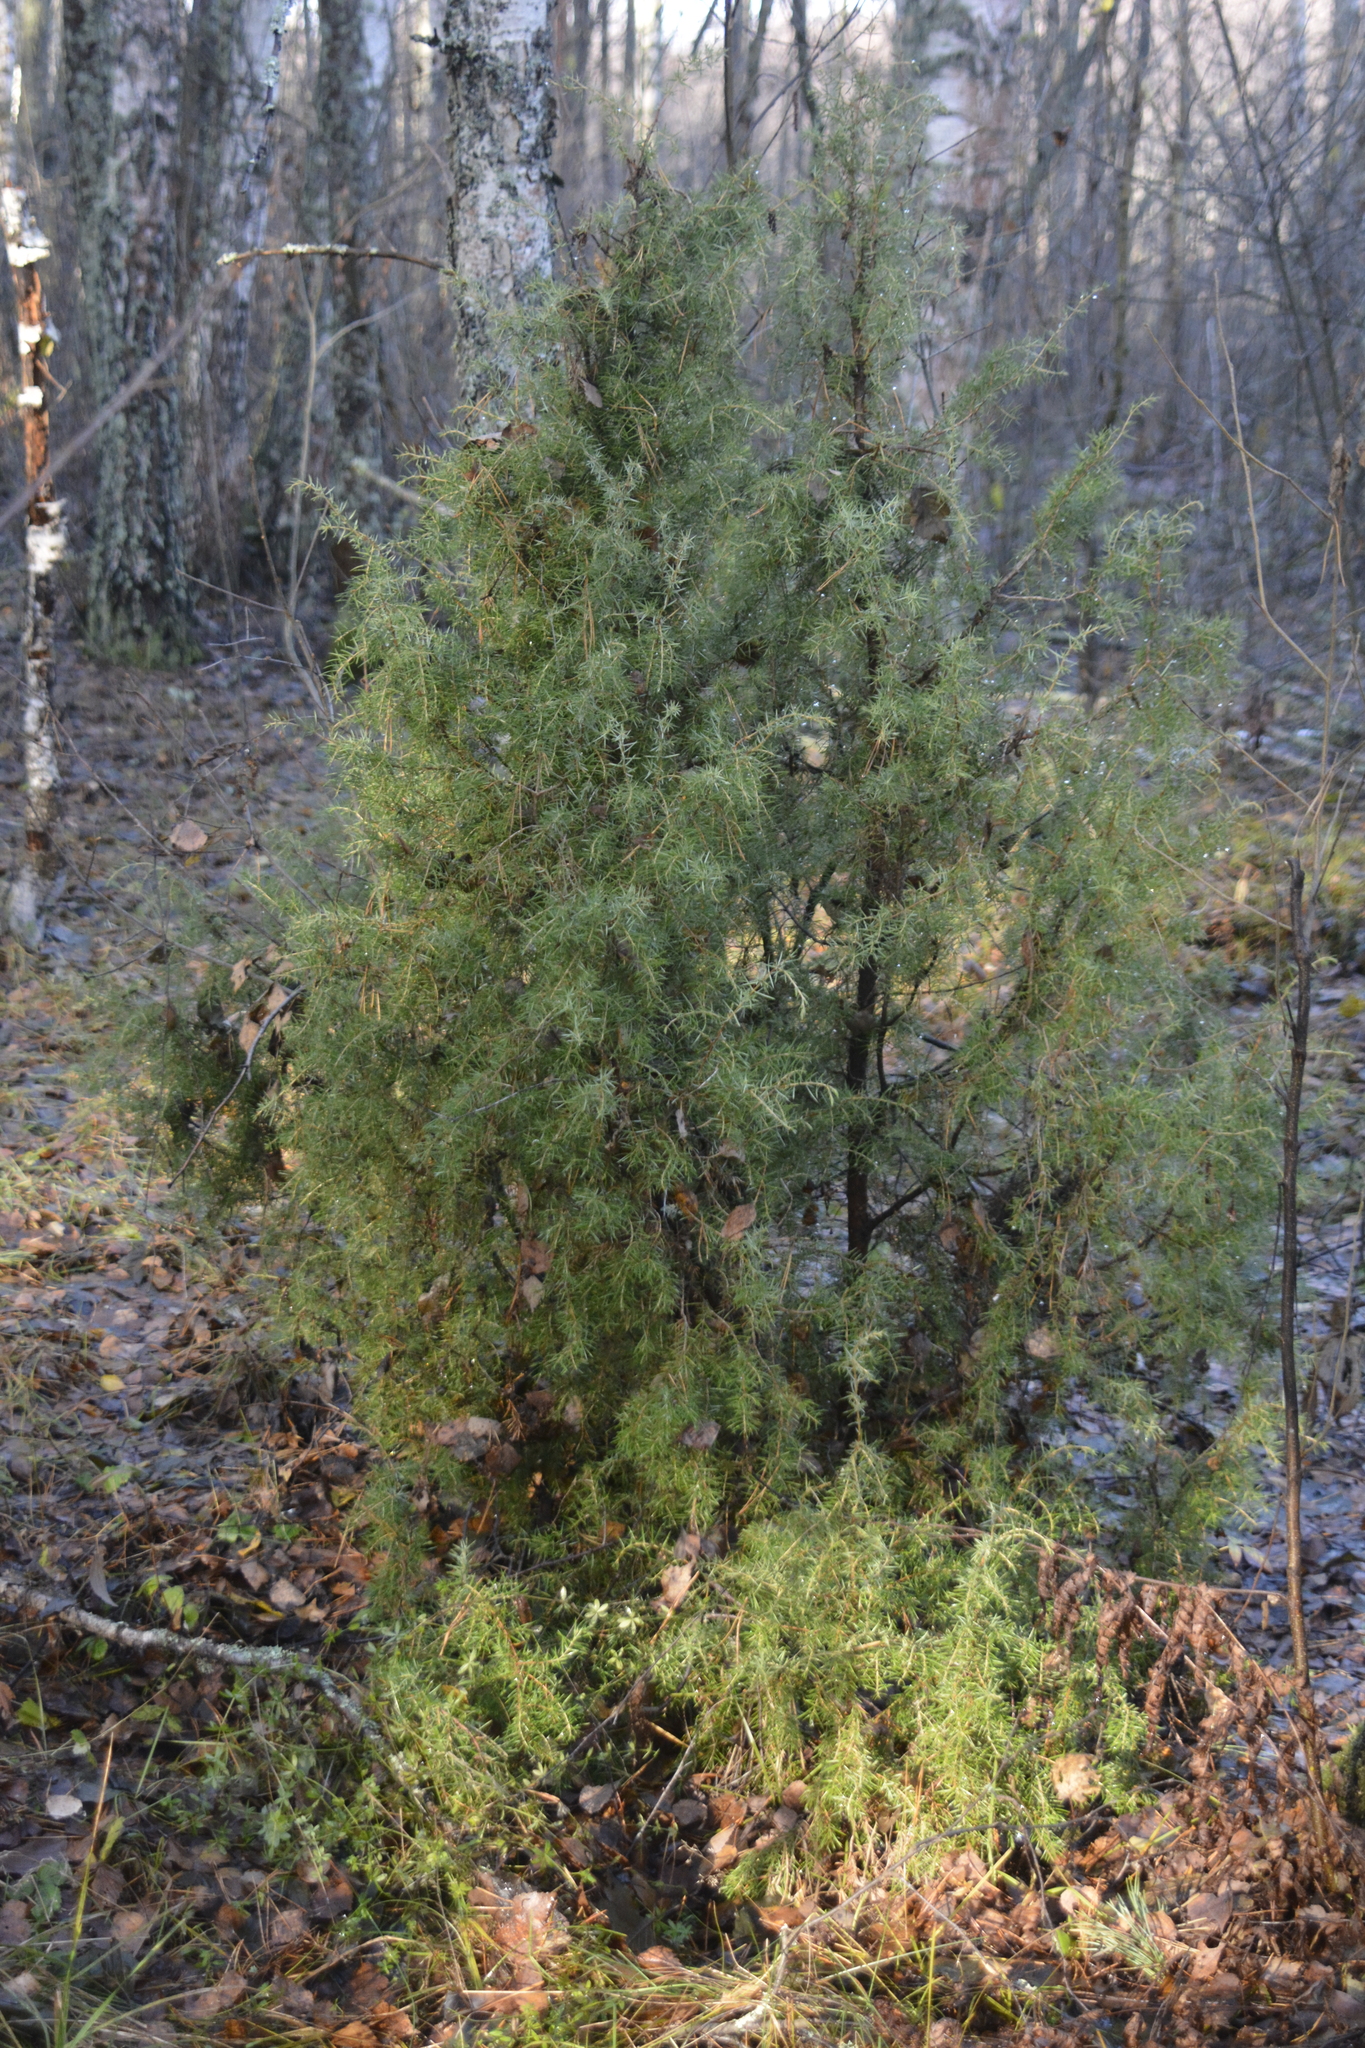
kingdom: Plantae
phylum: Tracheophyta
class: Pinopsida
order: Pinales
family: Cupressaceae
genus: Juniperus
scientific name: Juniperus communis
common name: Common juniper
